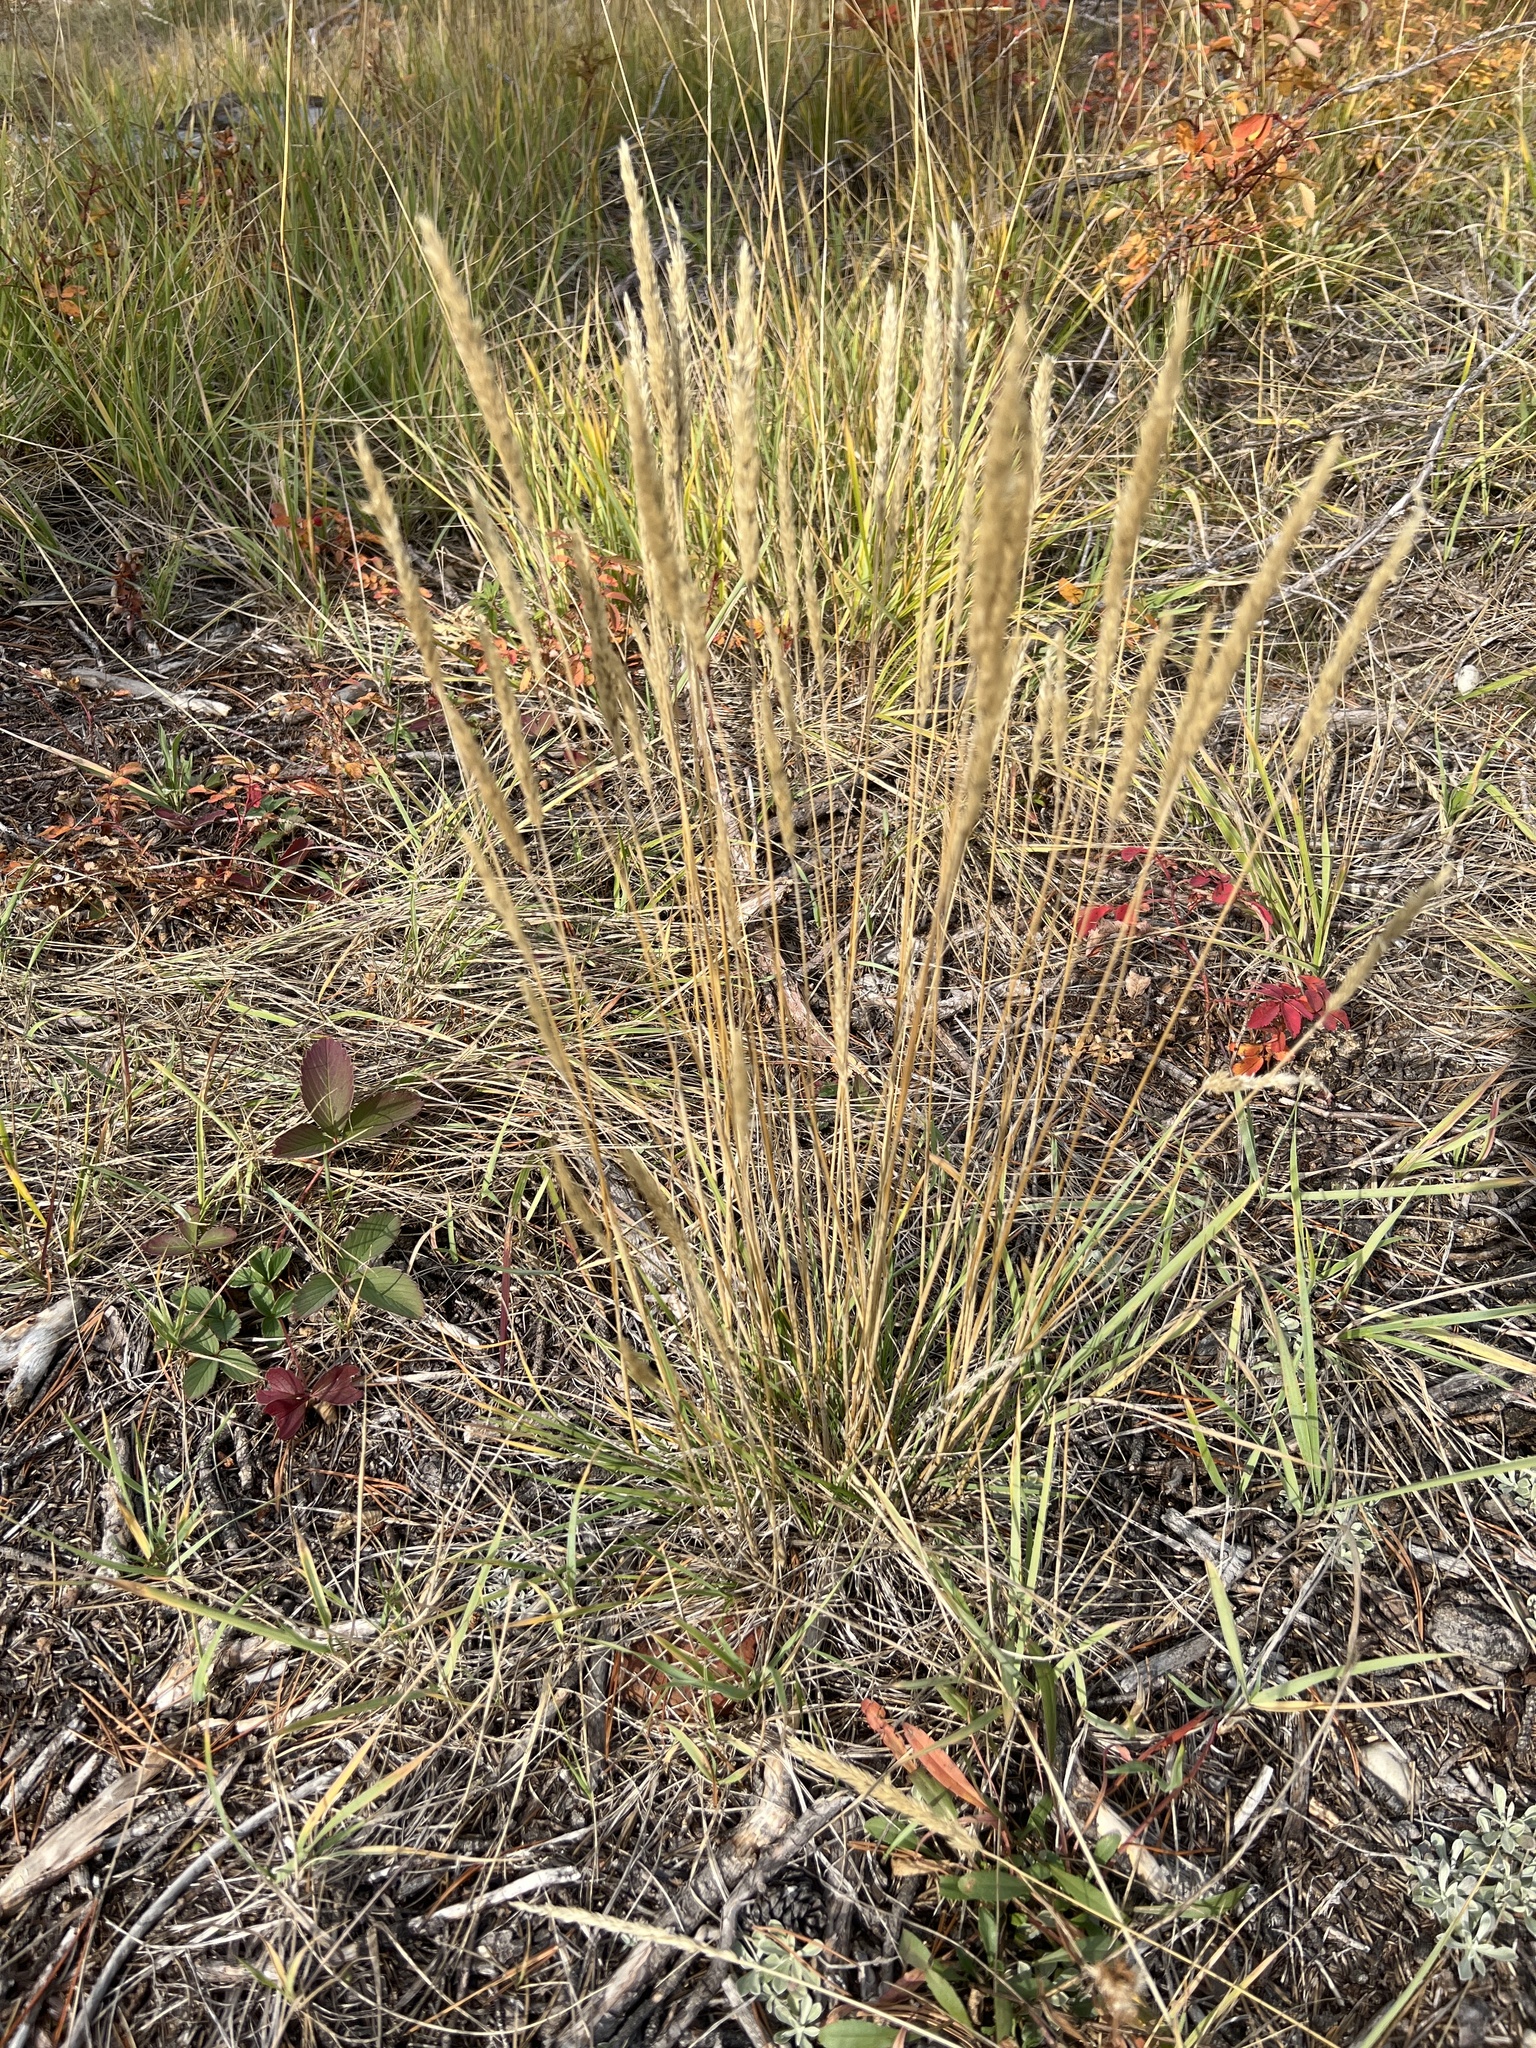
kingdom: Plantae
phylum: Tracheophyta
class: Liliopsida
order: Poales
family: Poaceae
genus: Koeleria
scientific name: Koeleria macrantha
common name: Crested hair-grass
